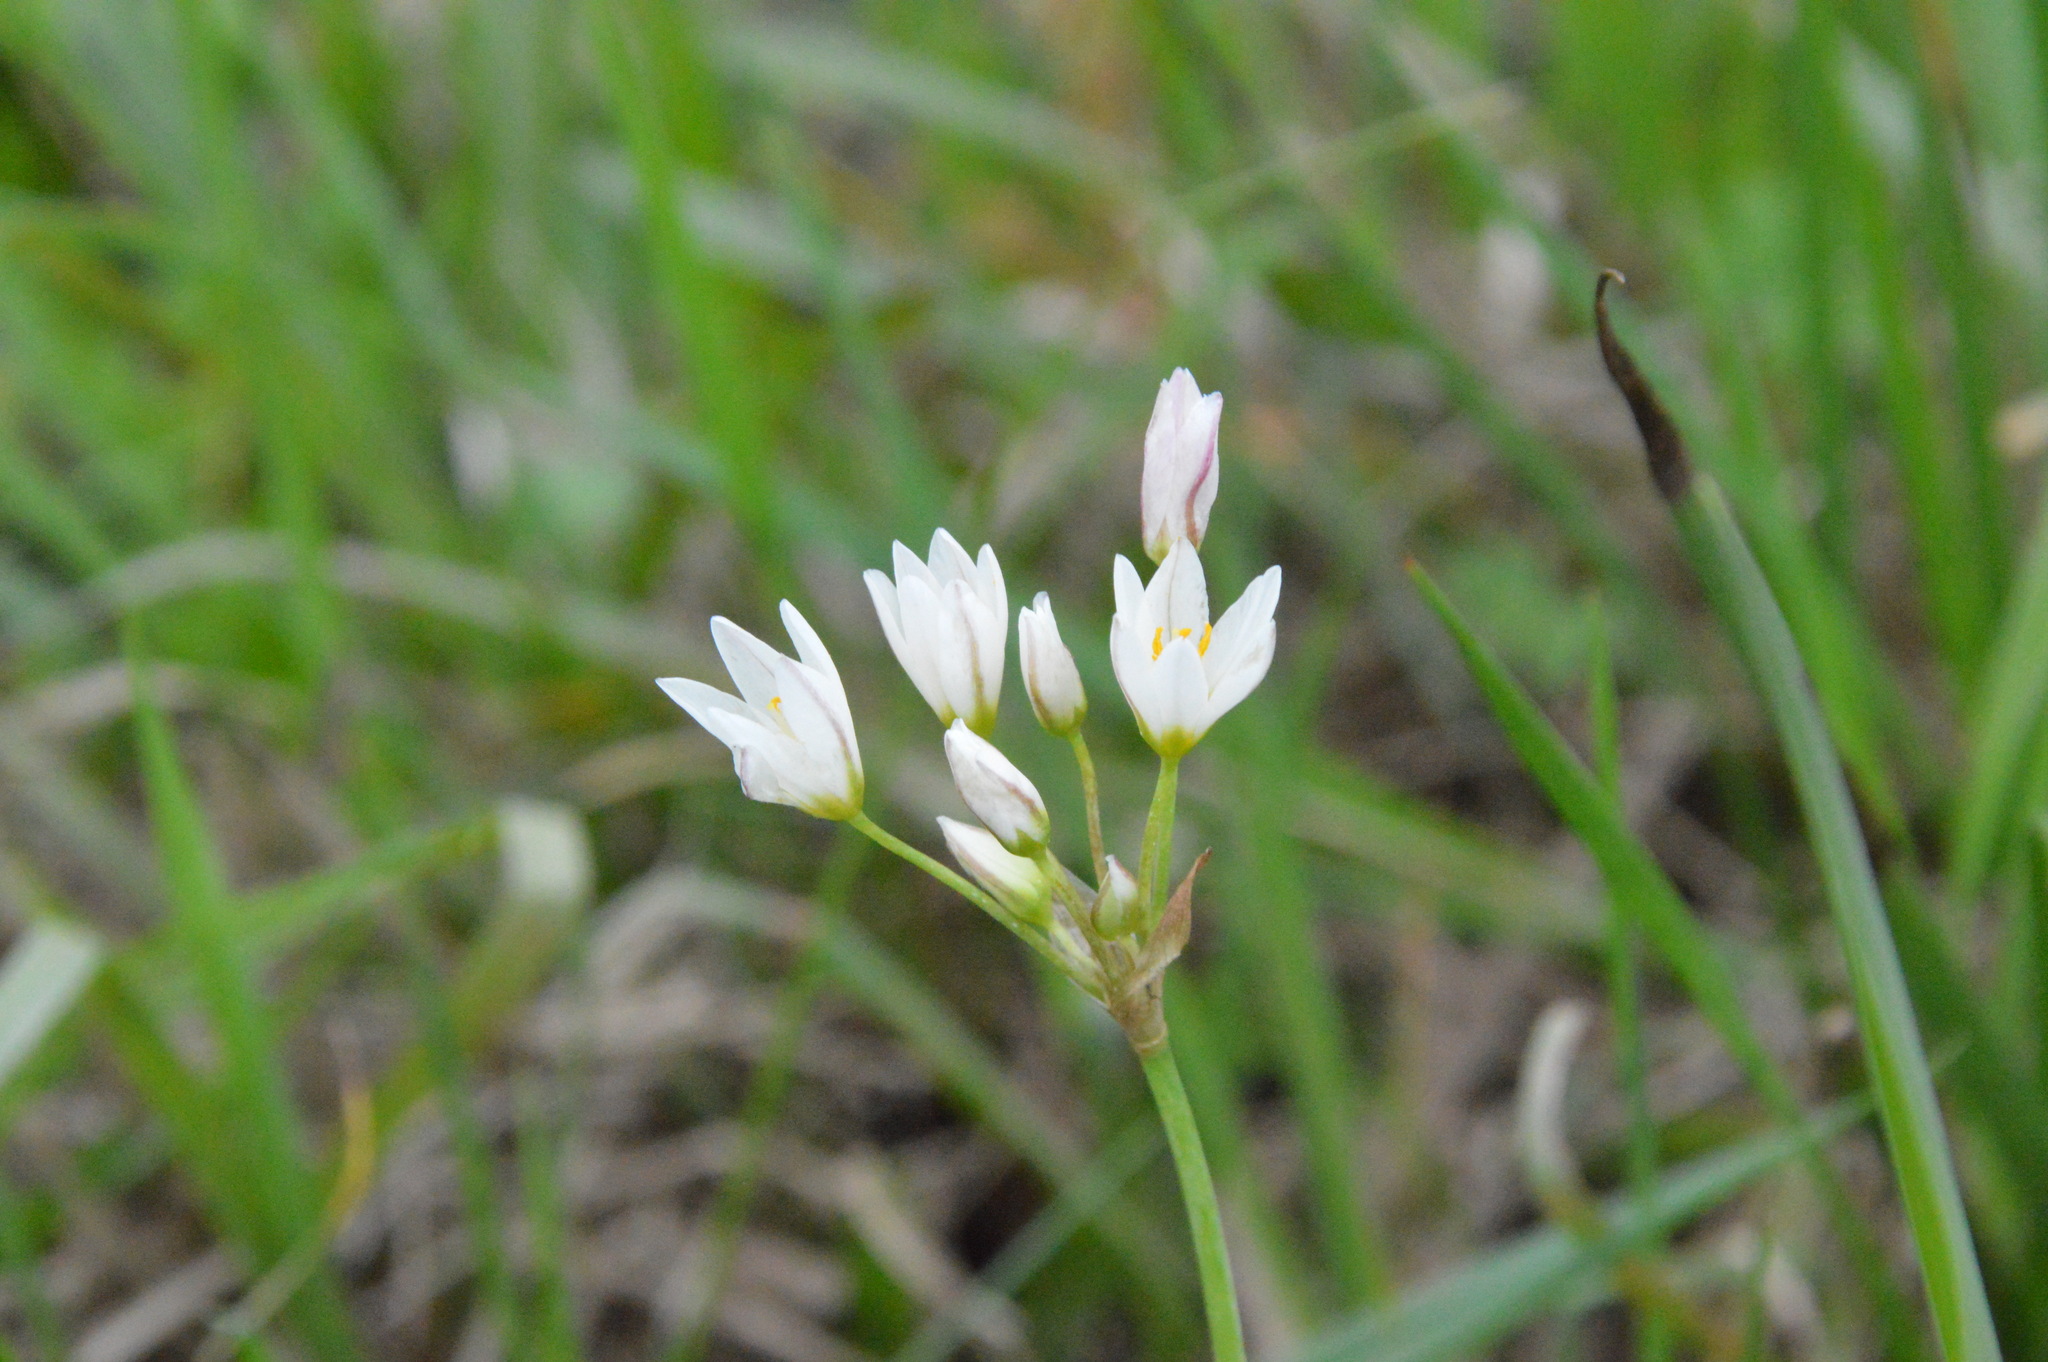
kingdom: Plantae
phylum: Tracheophyta
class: Liliopsida
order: Asparagales
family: Amaryllidaceae
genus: Nothoscordum
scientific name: Nothoscordum bivalve
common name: Crow-poison
